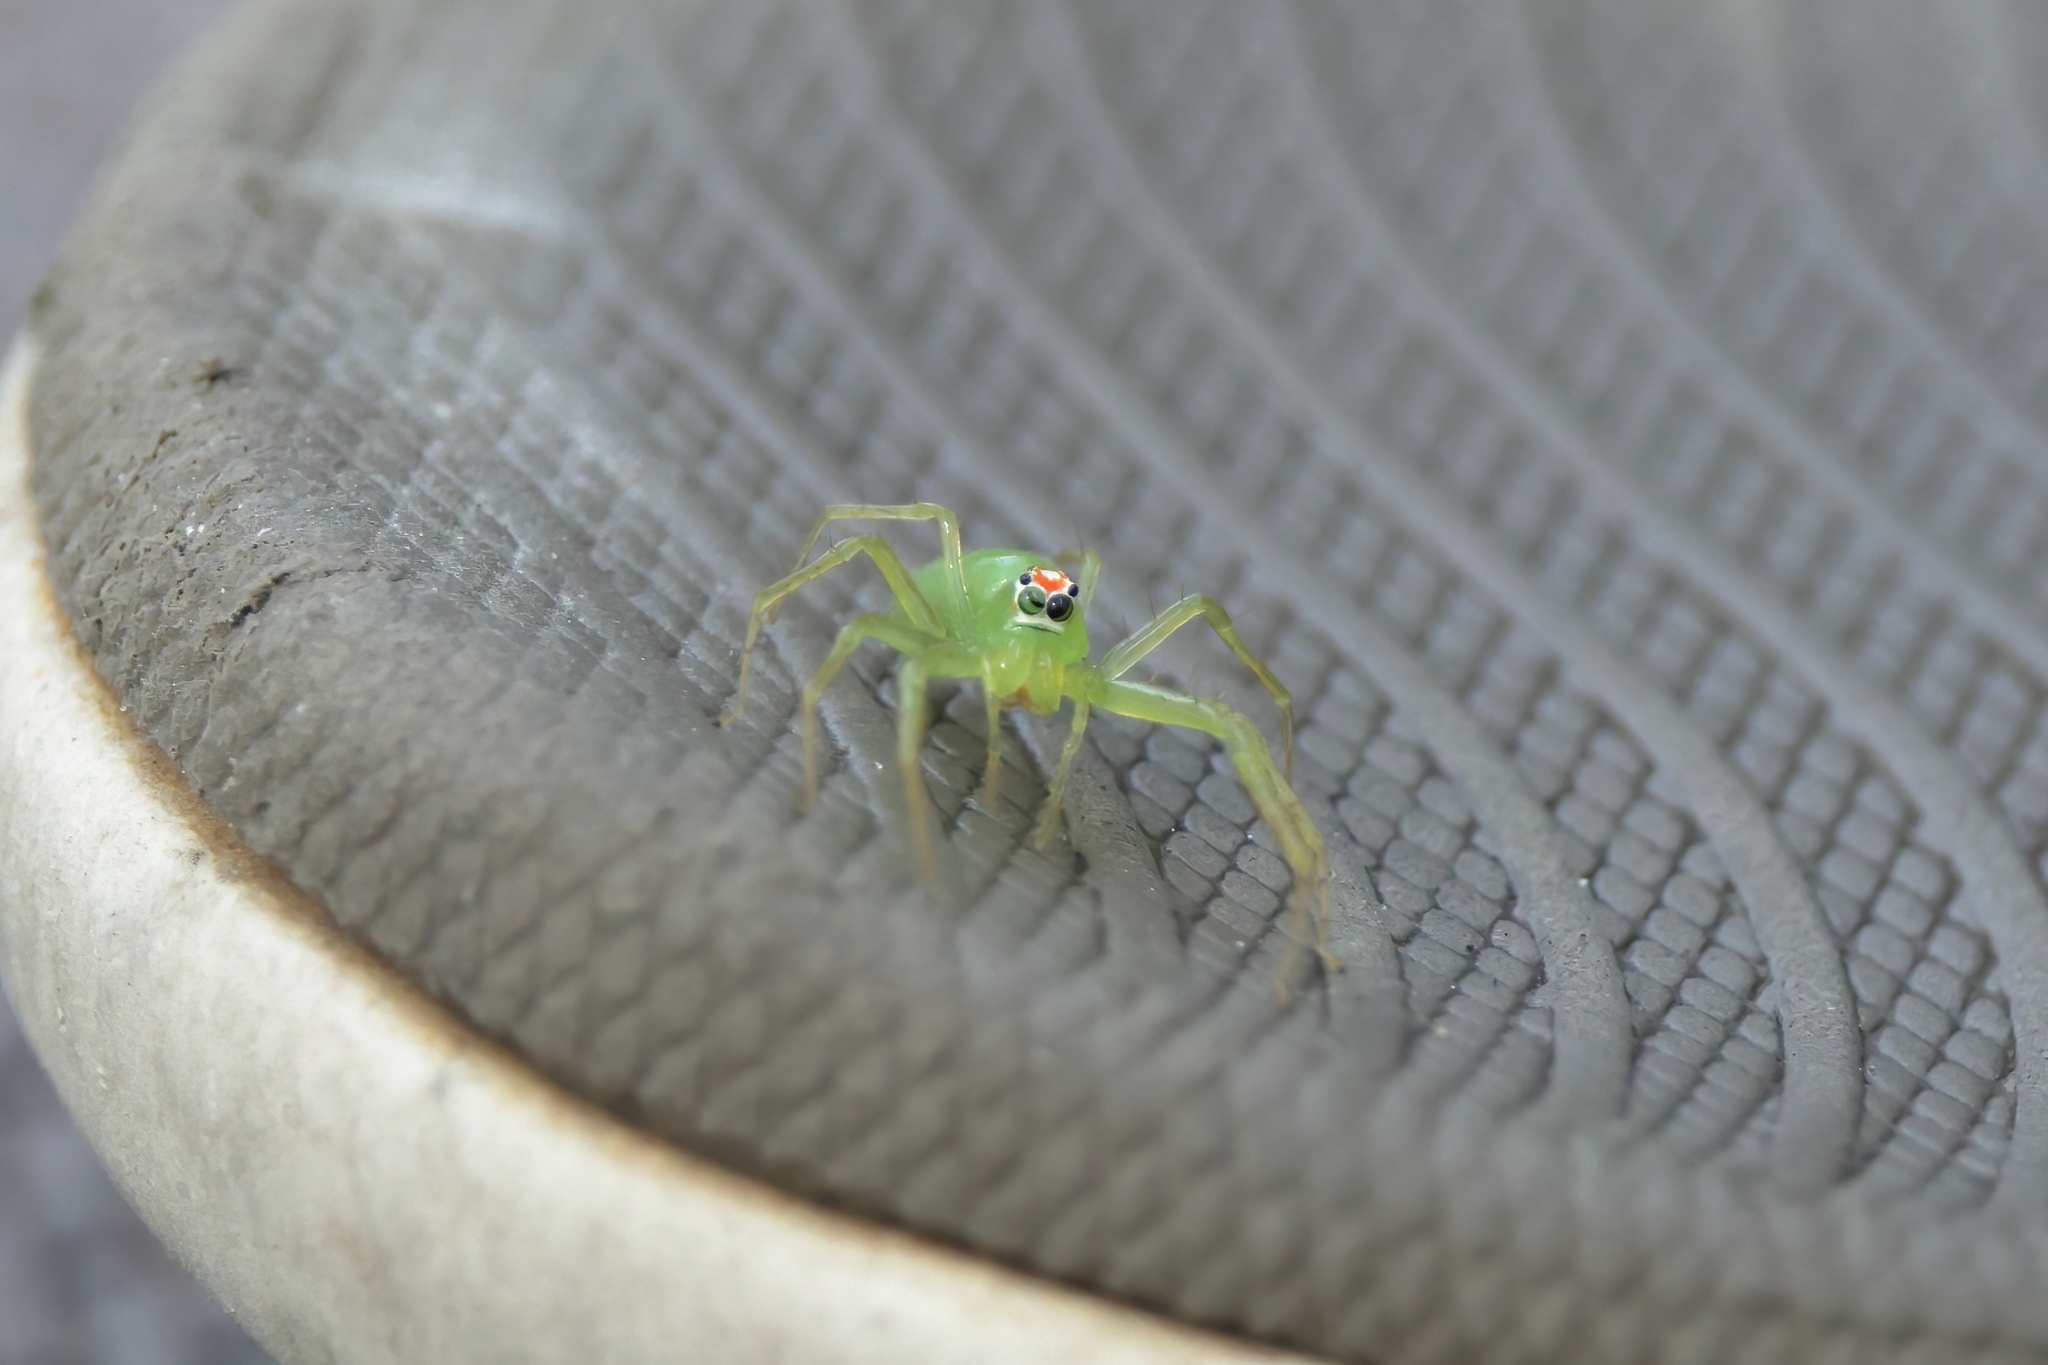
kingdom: Animalia
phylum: Arthropoda
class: Arachnida
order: Araneae
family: Salticidae
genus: Lyssomanes
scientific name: Lyssomanes viridis
